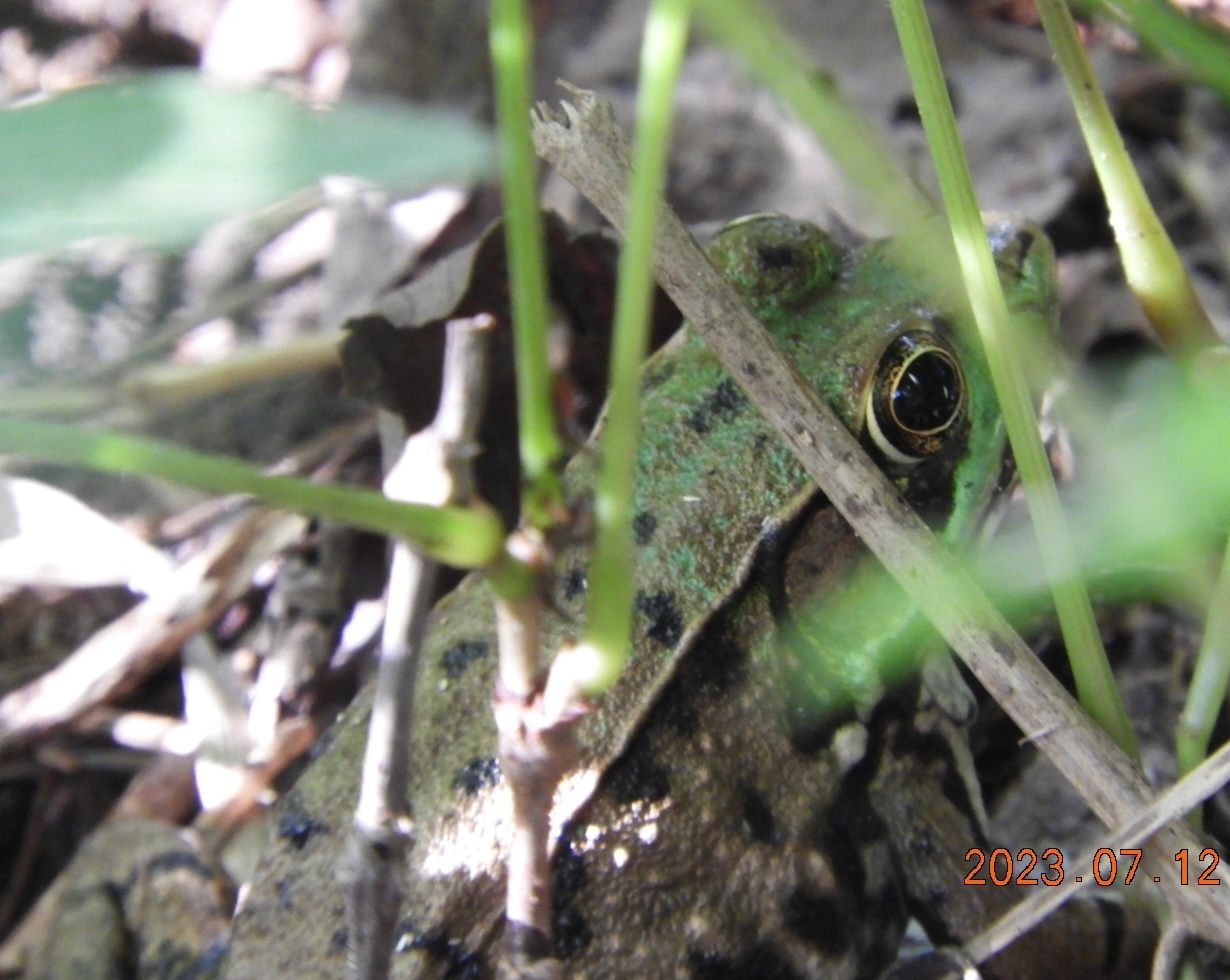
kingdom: Animalia
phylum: Chordata
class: Amphibia
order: Anura
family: Ranidae
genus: Lithobates
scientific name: Lithobates clamitans
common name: Green frog
